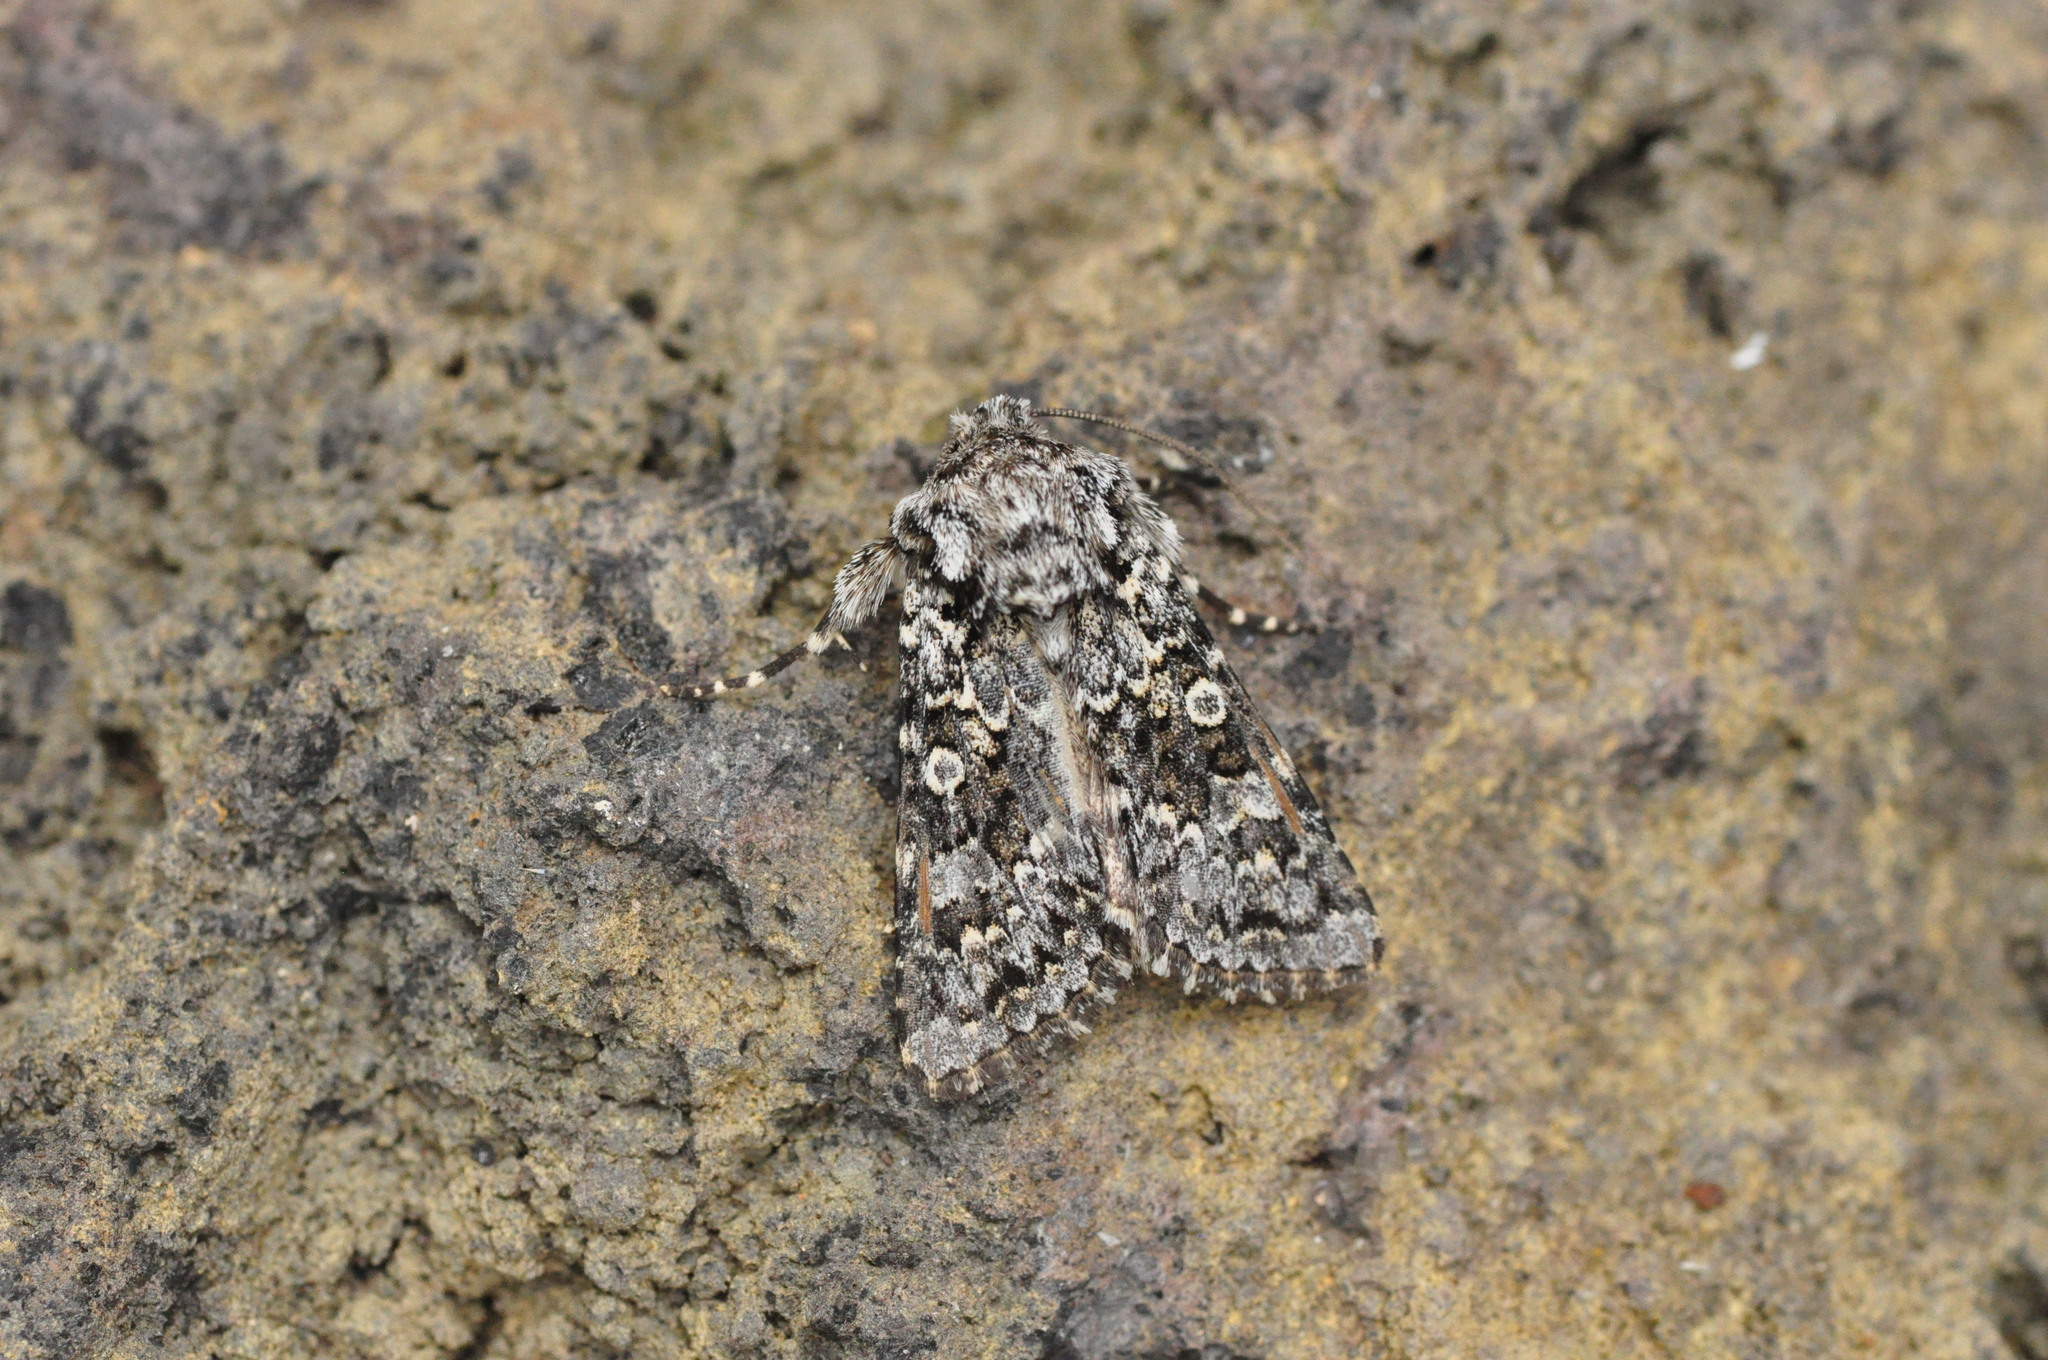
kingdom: Animalia
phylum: Arthropoda
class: Insecta
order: Lepidoptera
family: Noctuidae
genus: Hecatera
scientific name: Hecatera maderae
